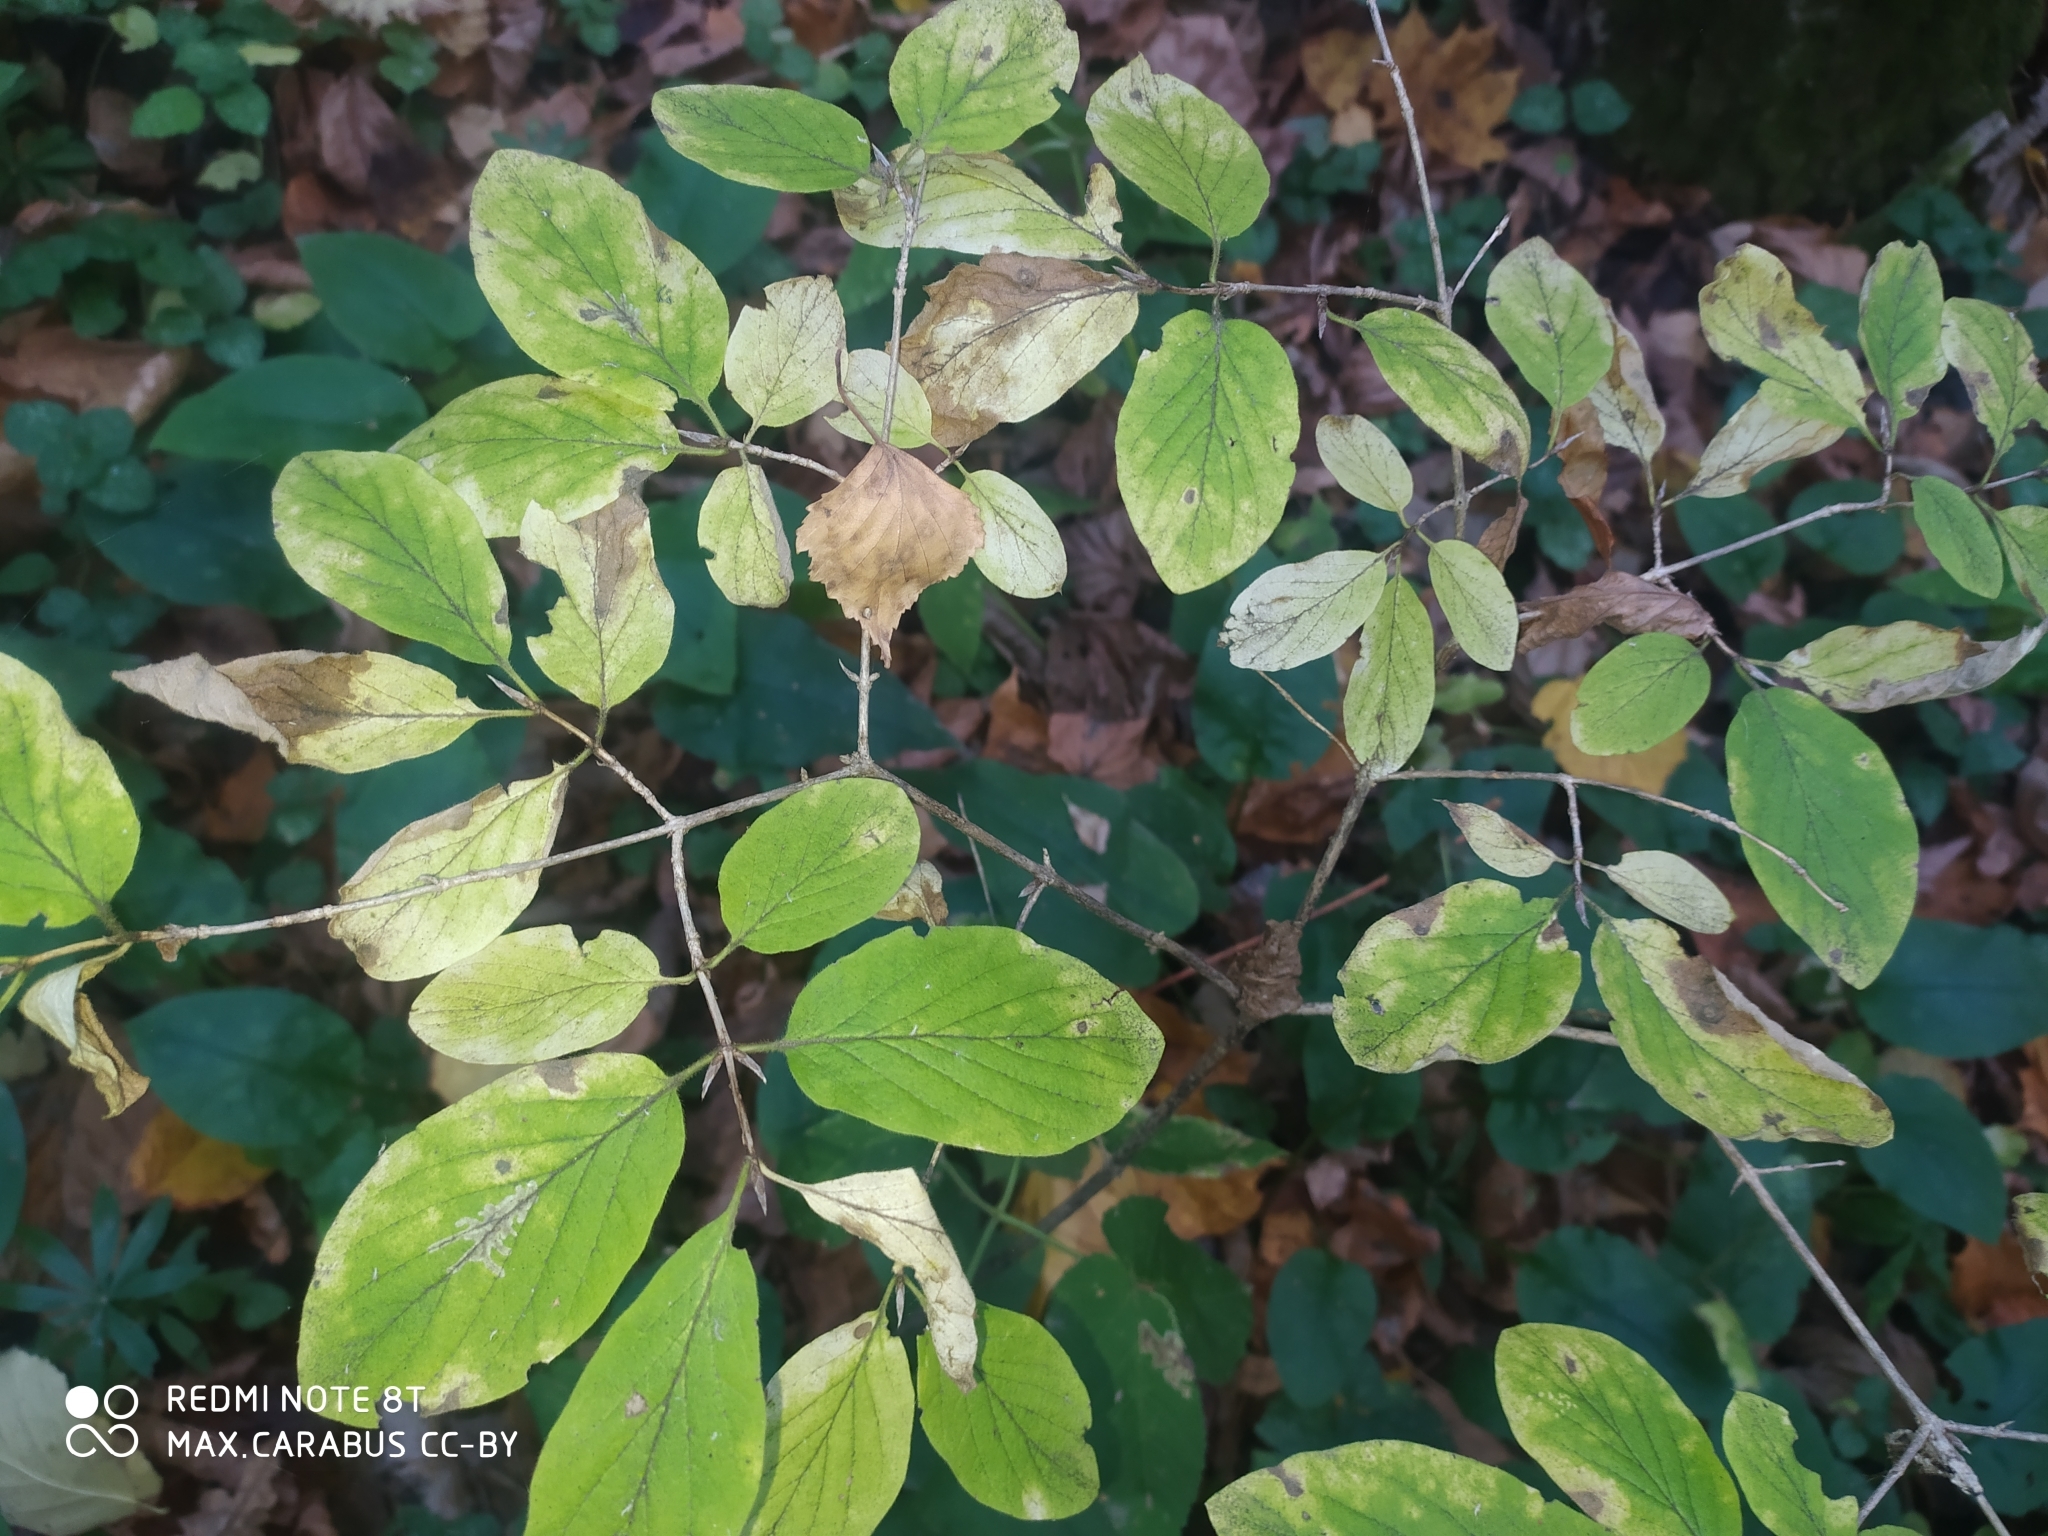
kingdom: Plantae
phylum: Tracheophyta
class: Magnoliopsida
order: Dipsacales
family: Caprifoliaceae
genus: Lonicera
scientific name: Lonicera xylosteum
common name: Fly honeysuckle
